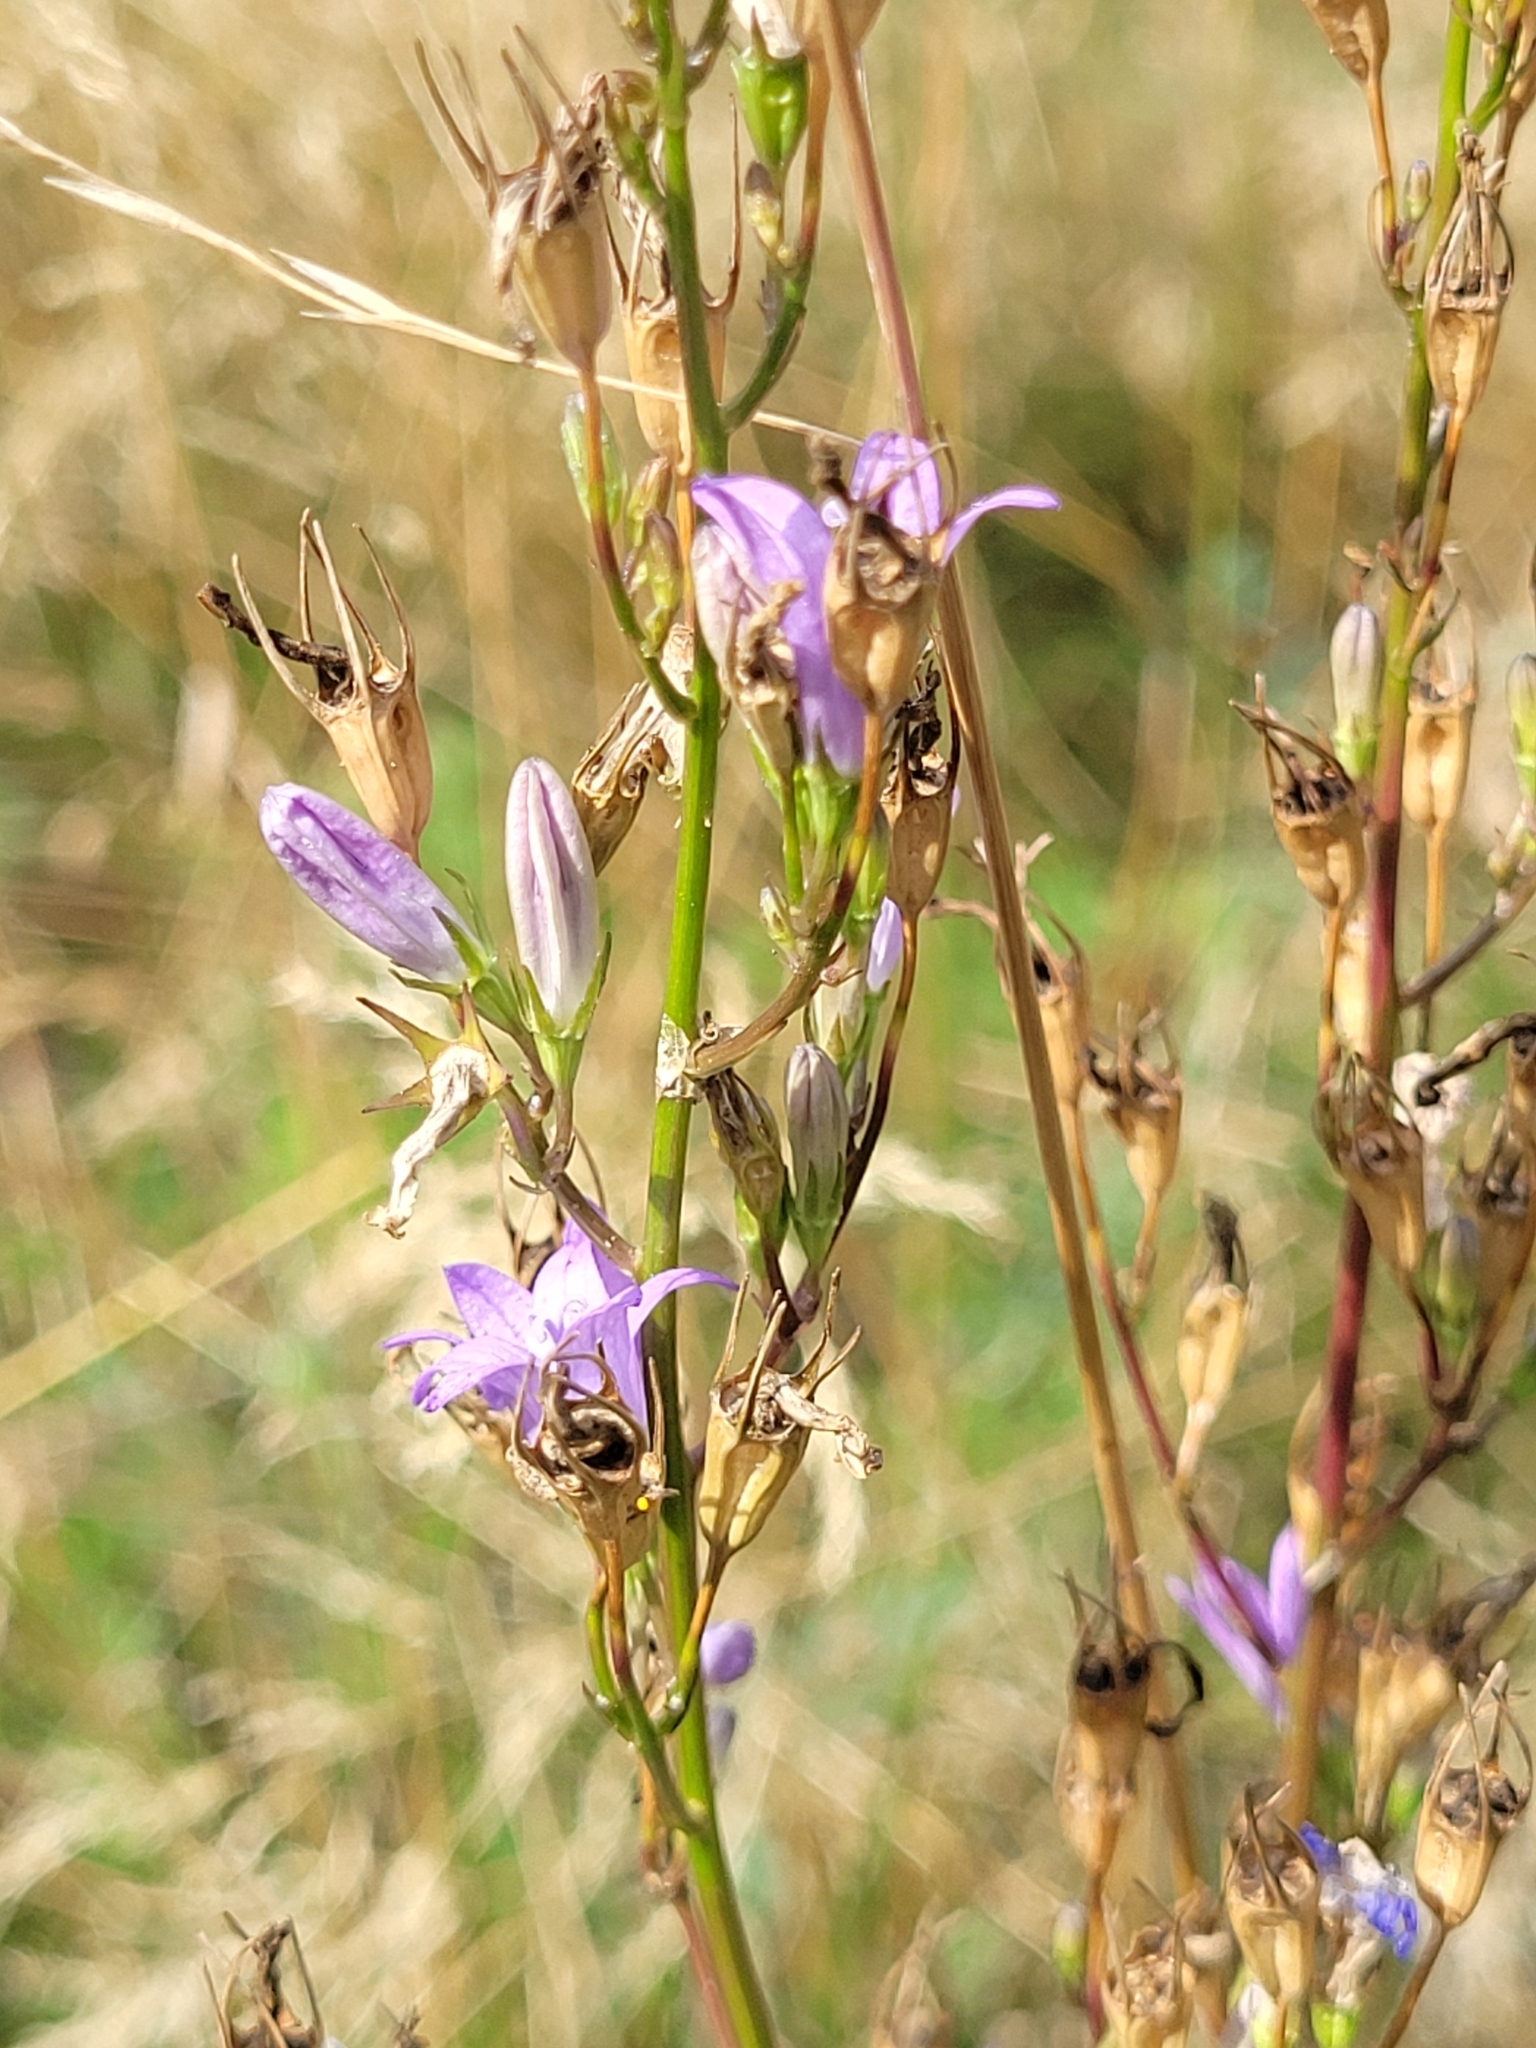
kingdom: Plantae
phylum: Tracheophyta
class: Magnoliopsida
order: Asterales
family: Campanulaceae
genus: Campanula
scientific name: Campanula rapunculus
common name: Rampion bellflower
